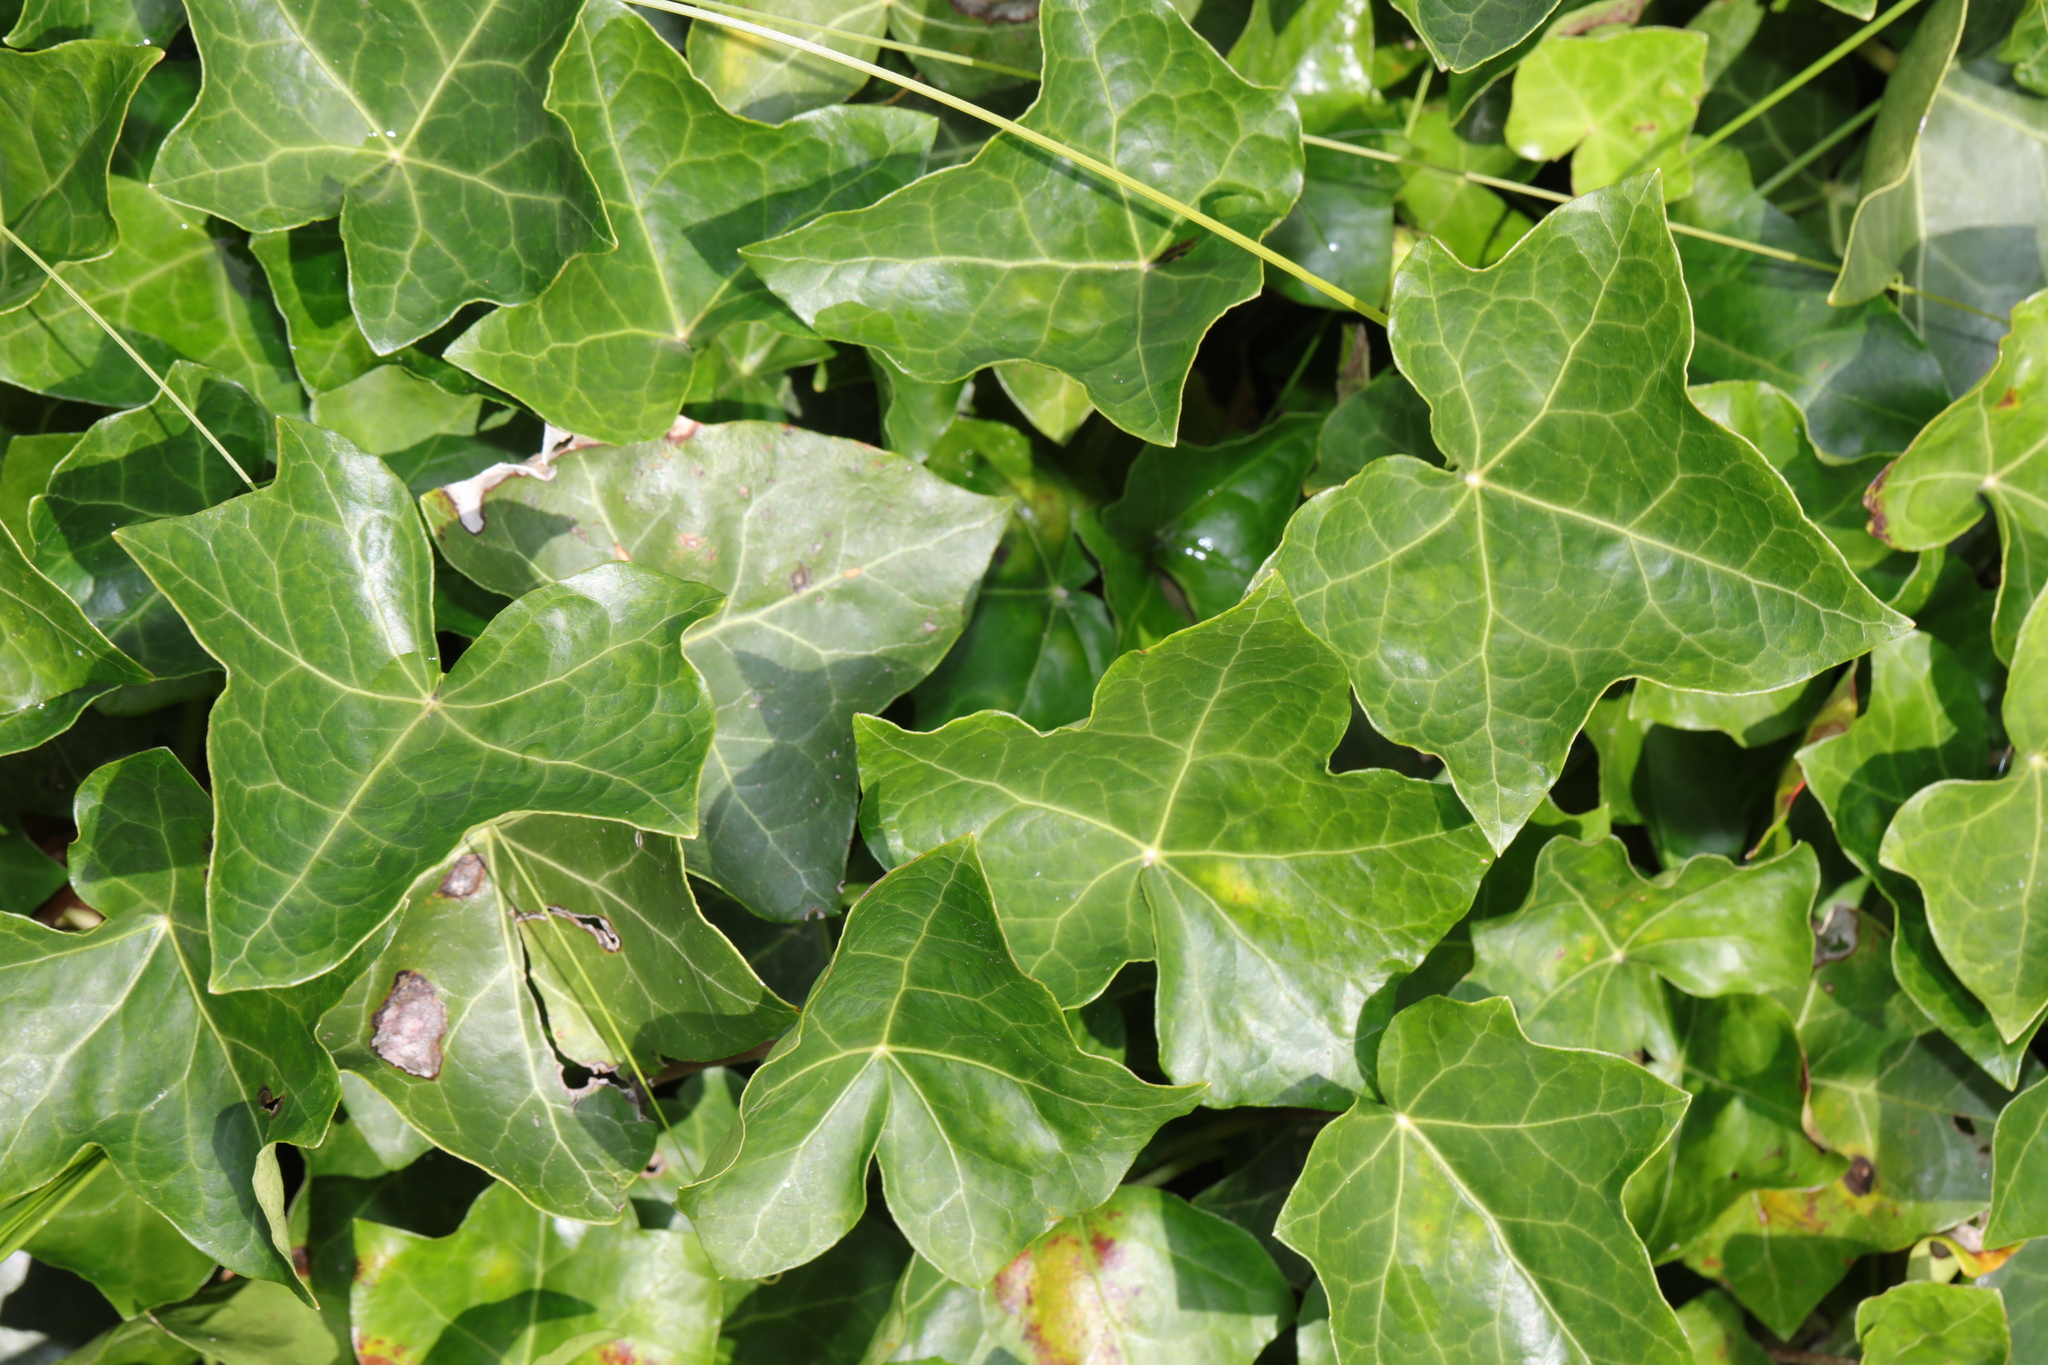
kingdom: Plantae
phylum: Tracheophyta
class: Magnoliopsida
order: Apiales
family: Araliaceae
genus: Hedera
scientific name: Hedera helix
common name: Ivy
